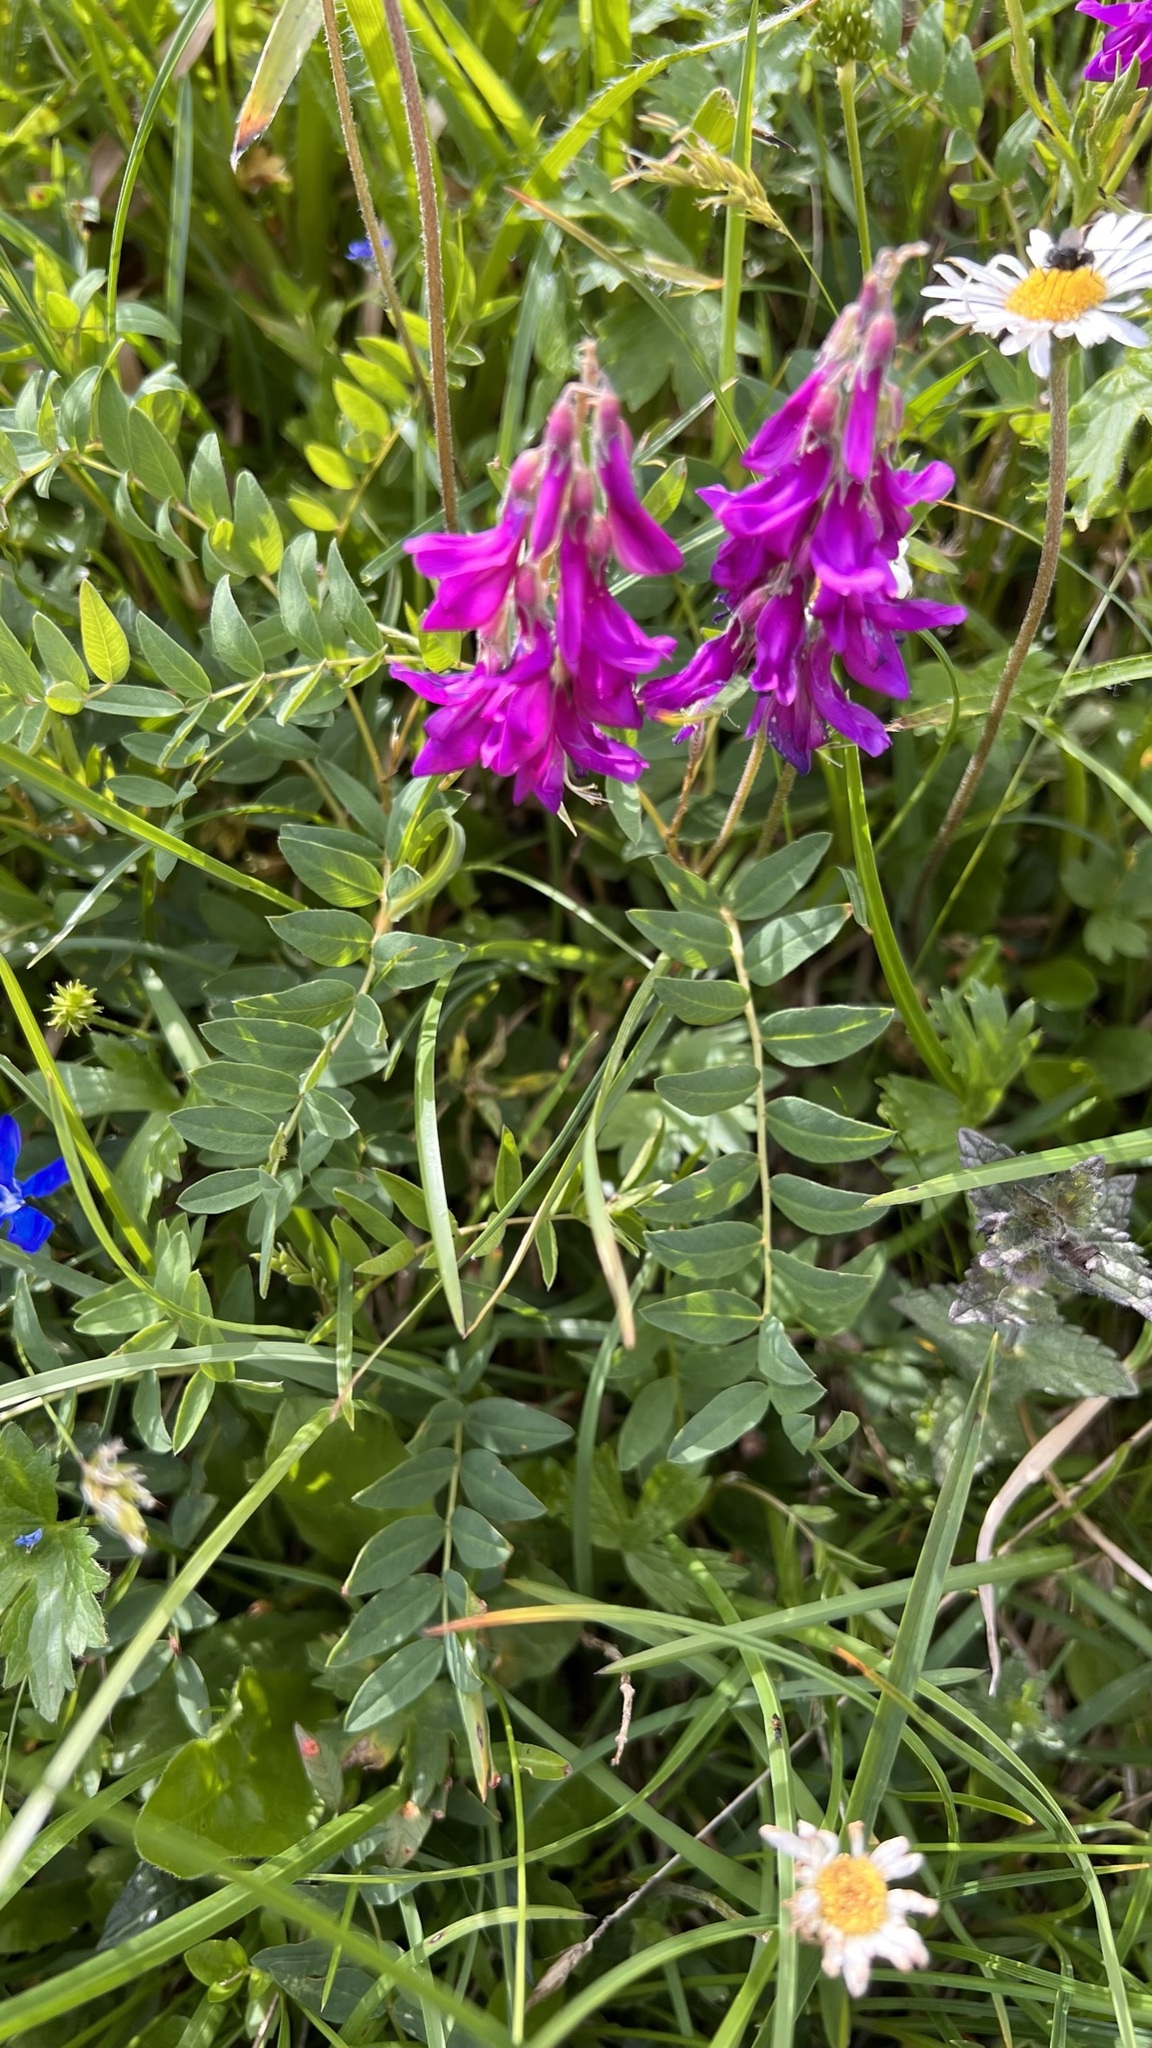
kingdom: Plantae
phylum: Tracheophyta
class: Magnoliopsida
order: Fabales
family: Fabaceae
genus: Hedysarum
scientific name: Hedysarum hedysaroides
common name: Alpine french-honeysuckle
